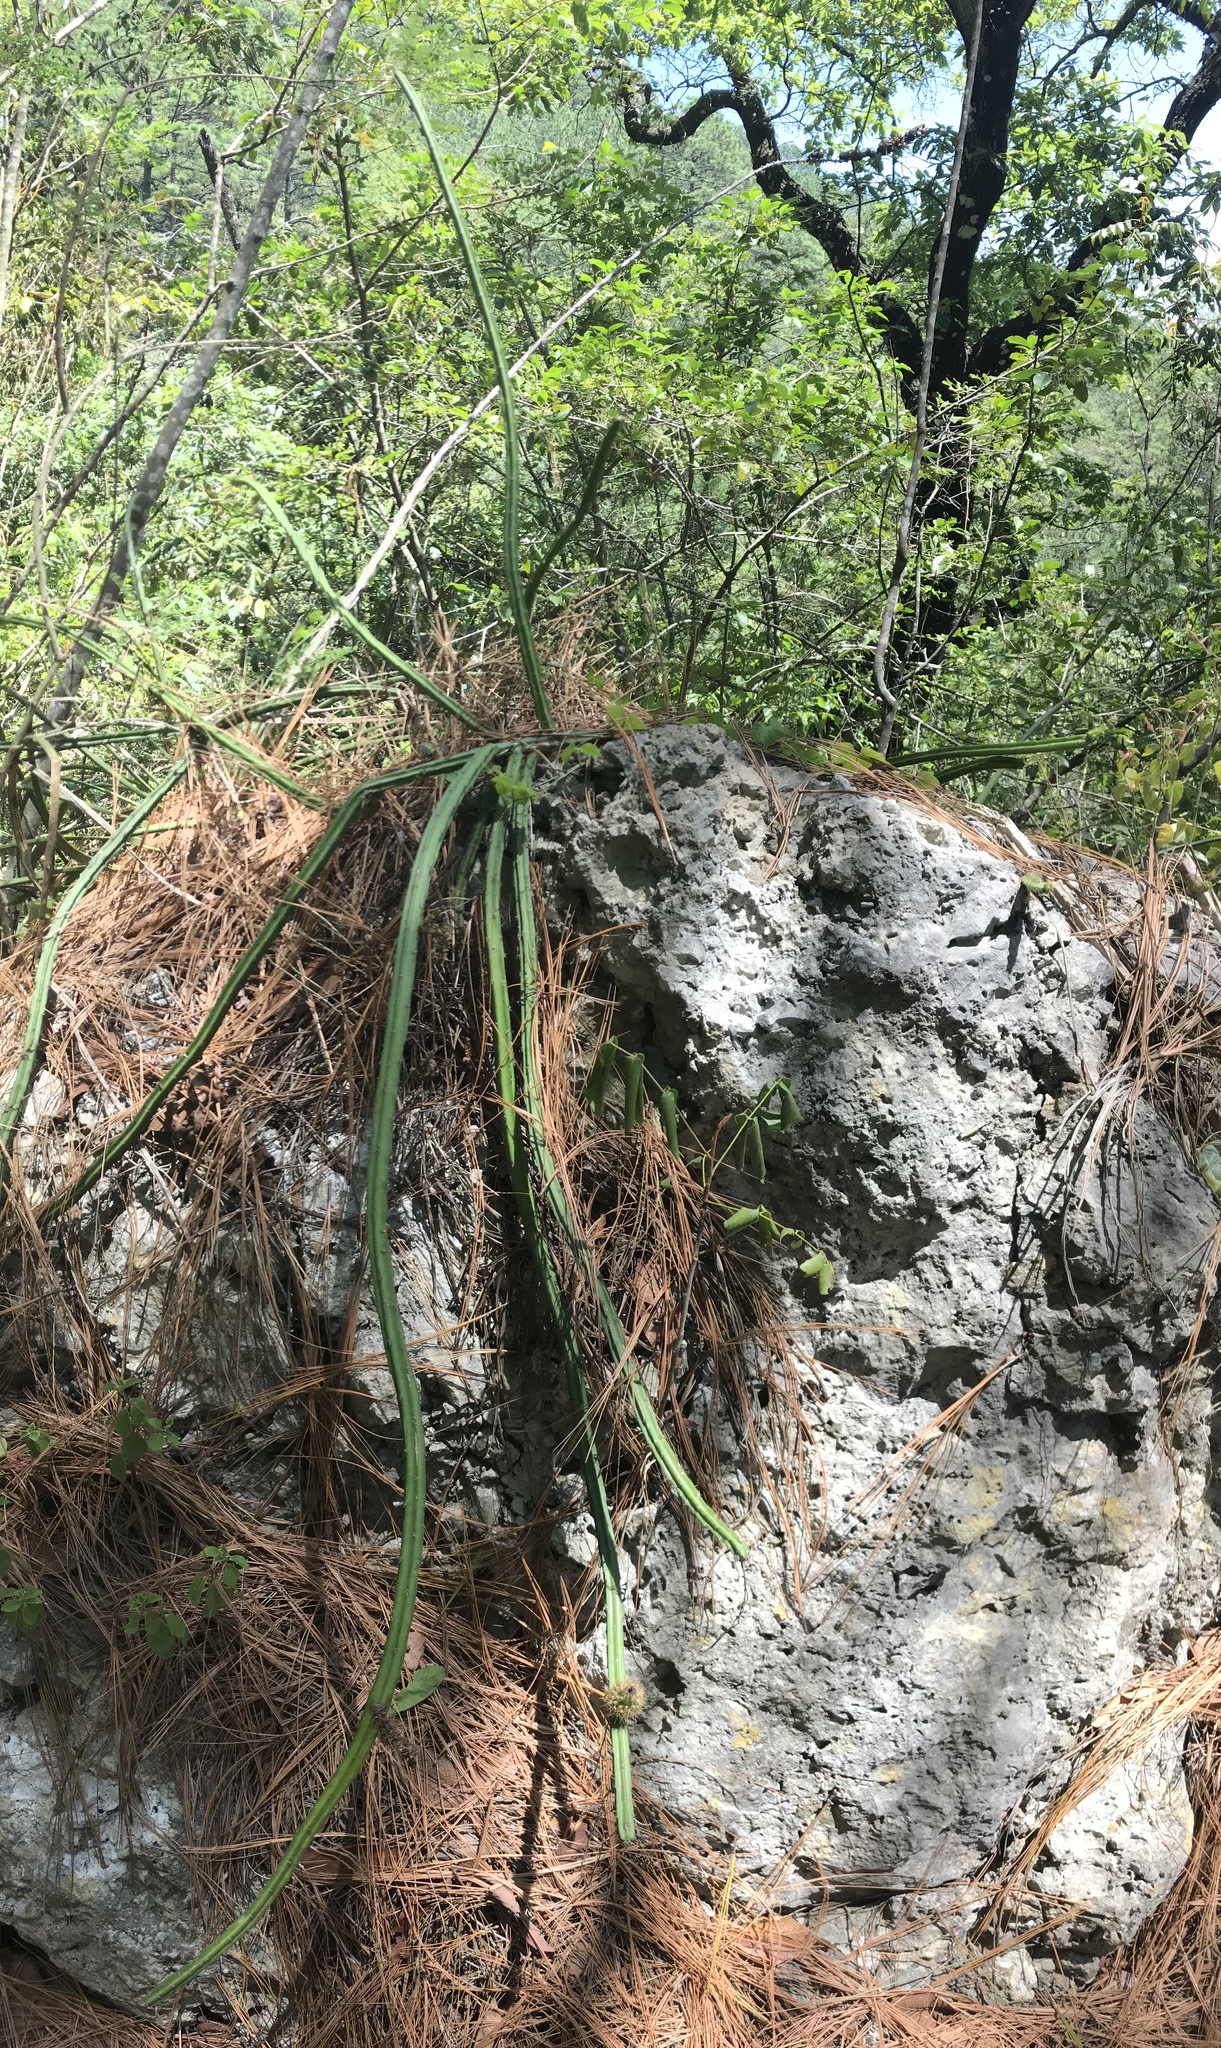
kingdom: Plantae
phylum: Tracheophyta
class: Magnoliopsida
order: Caryophyllales
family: Cactaceae
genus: Selenicereus
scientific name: Selenicereus spinulosus
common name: Nightblooming cereus
